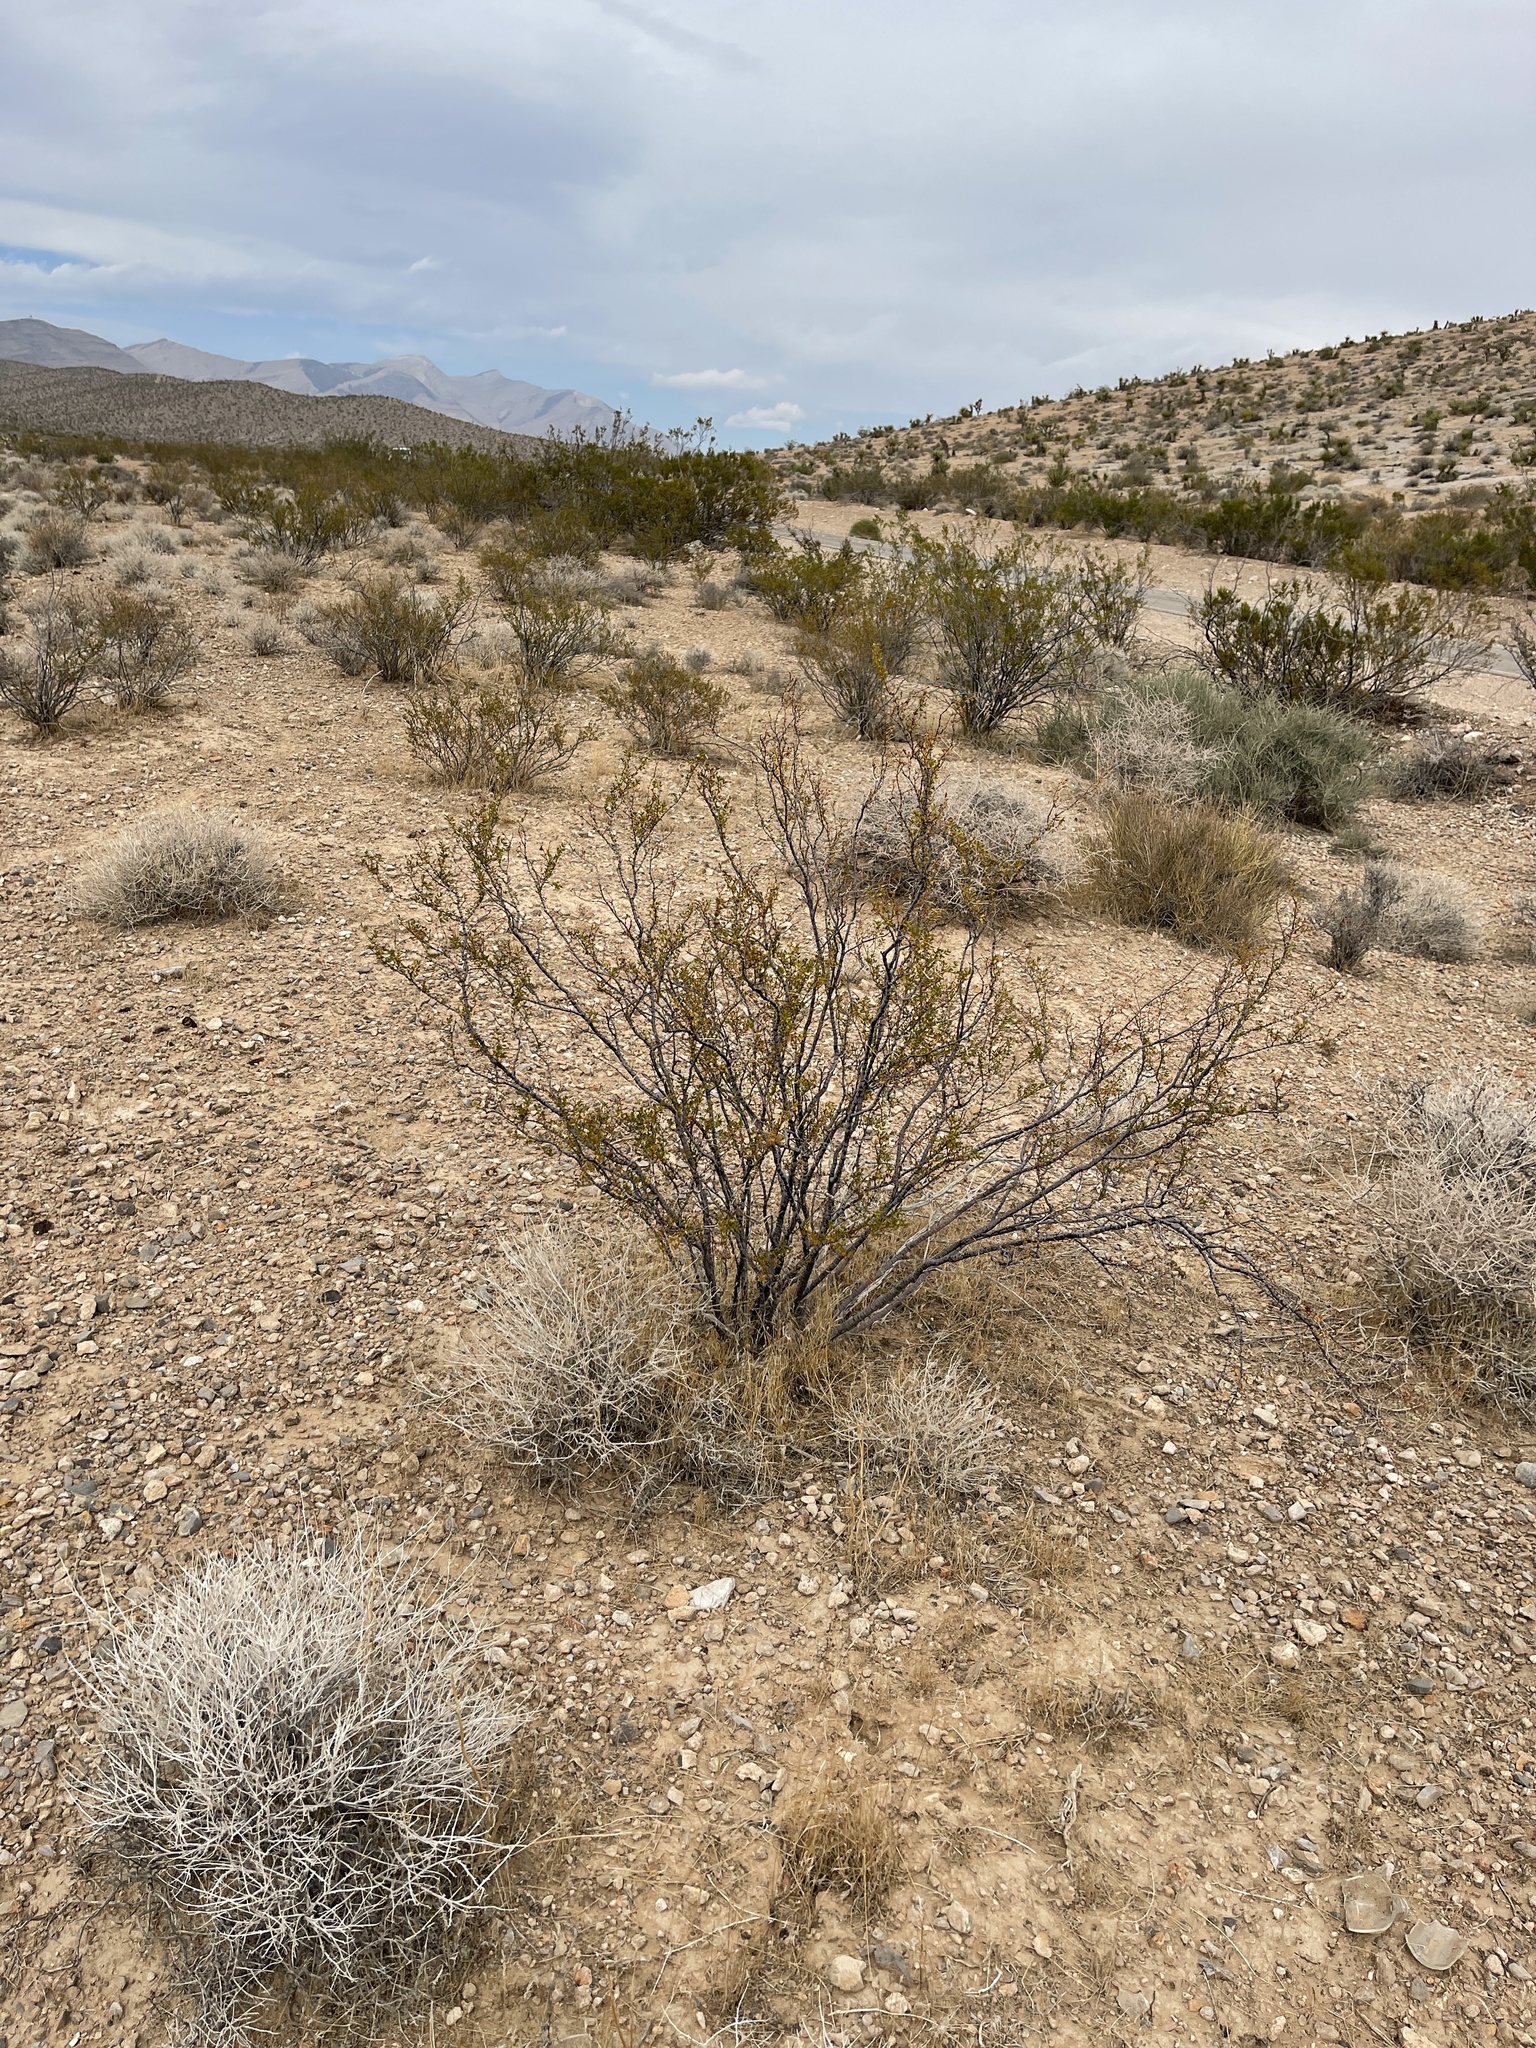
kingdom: Plantae
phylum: Tracheophyta
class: Magnoliopsida
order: Zygophyllales
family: Zygophyllaceae
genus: Larrea
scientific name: Larrea tridentata
